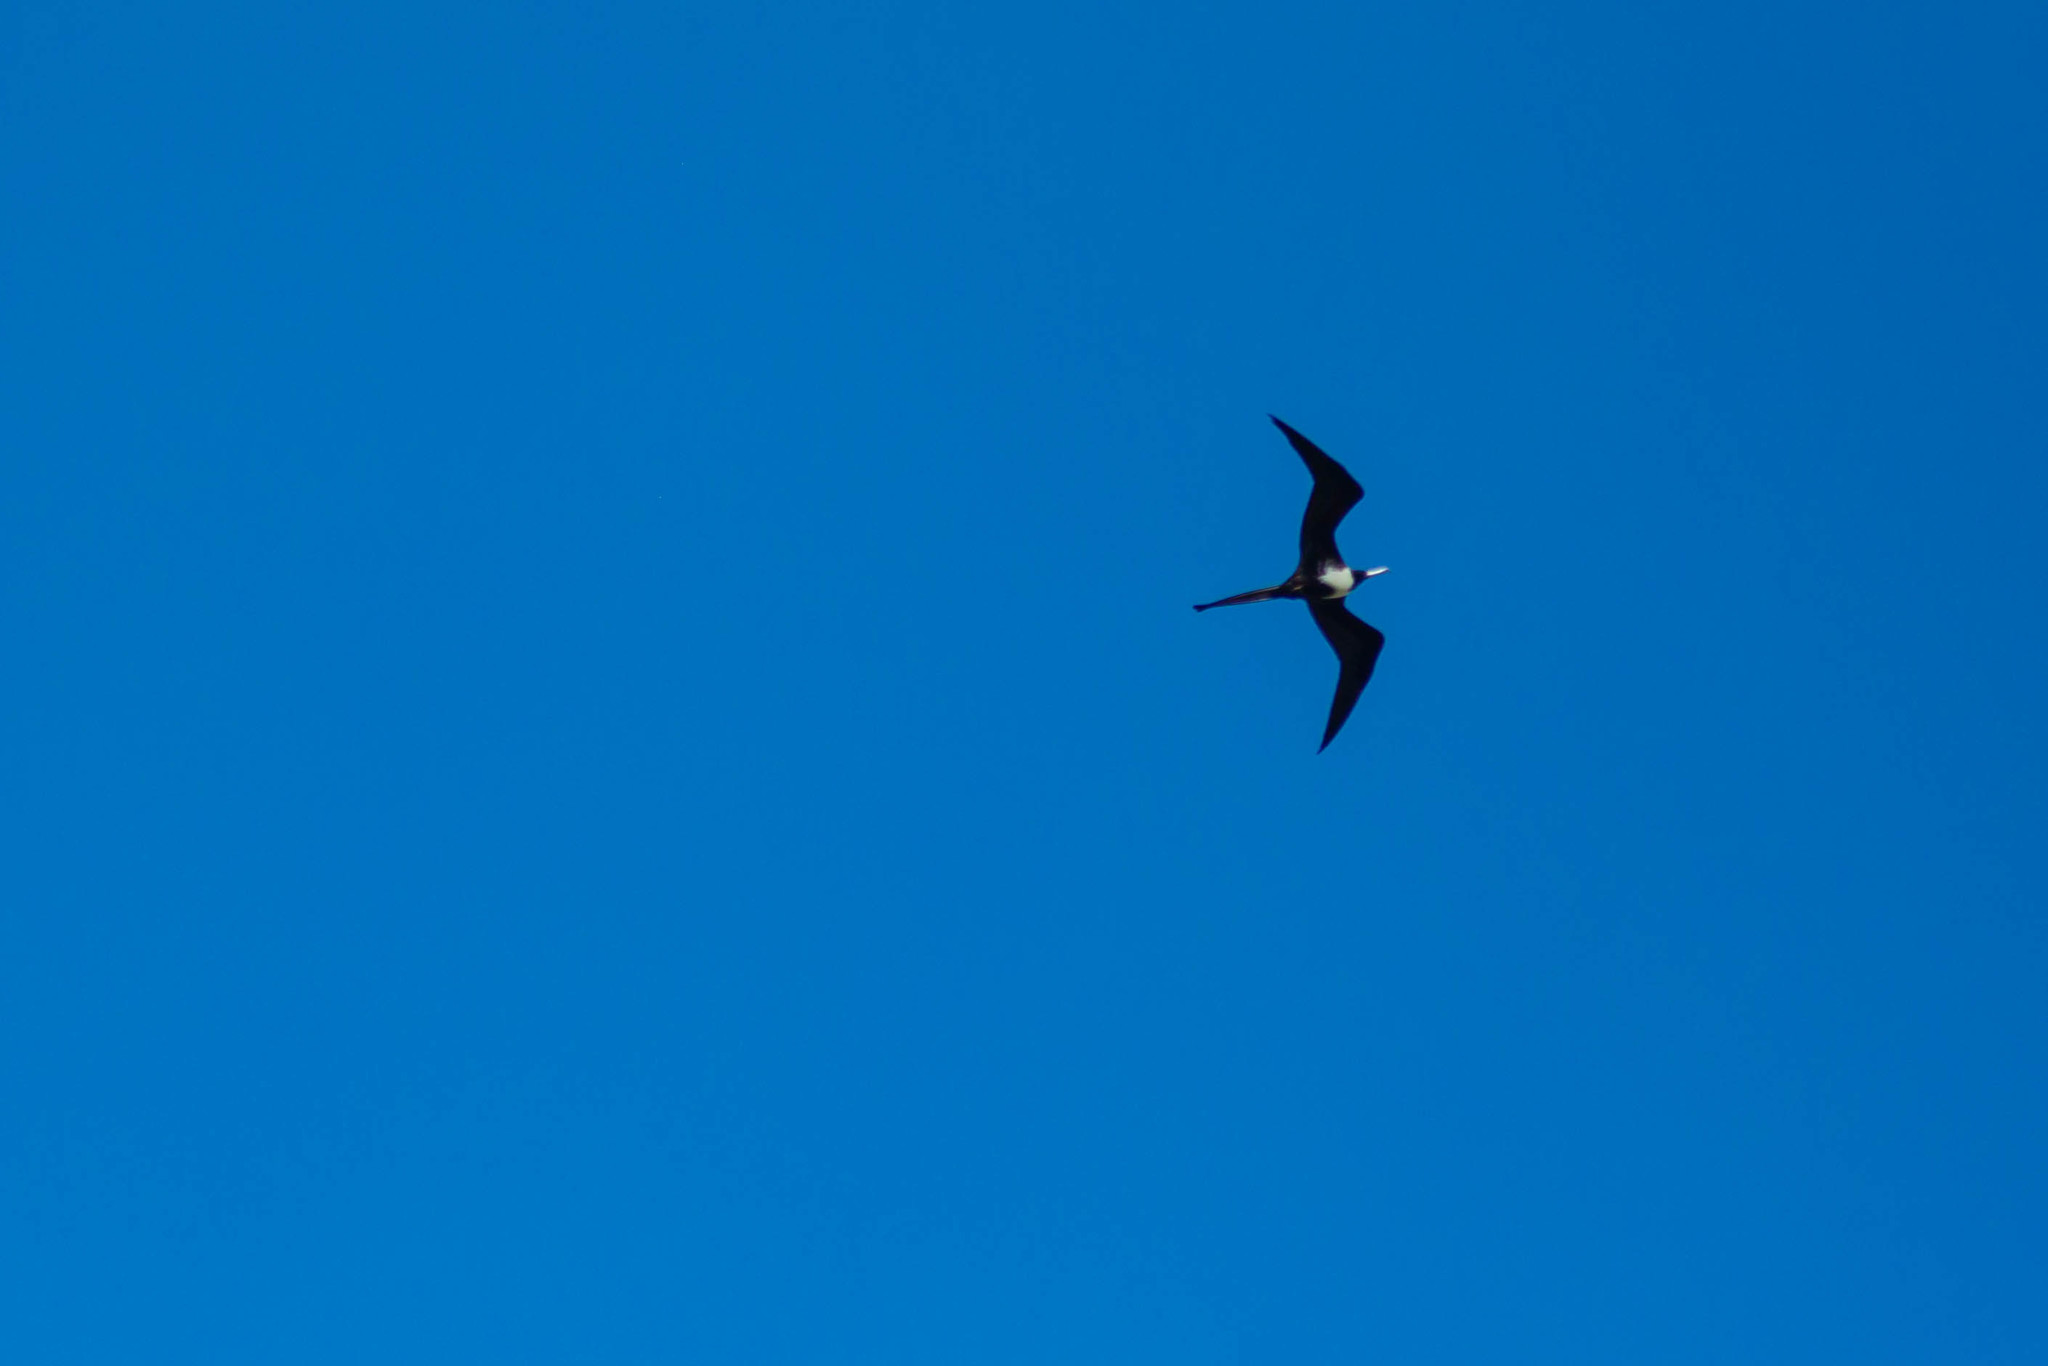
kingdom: Animalia
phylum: Chordata
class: Aves
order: Suliformes
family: Fregatidae
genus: Fregata
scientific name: Fregata magnificens
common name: Magnificent frigatebird
